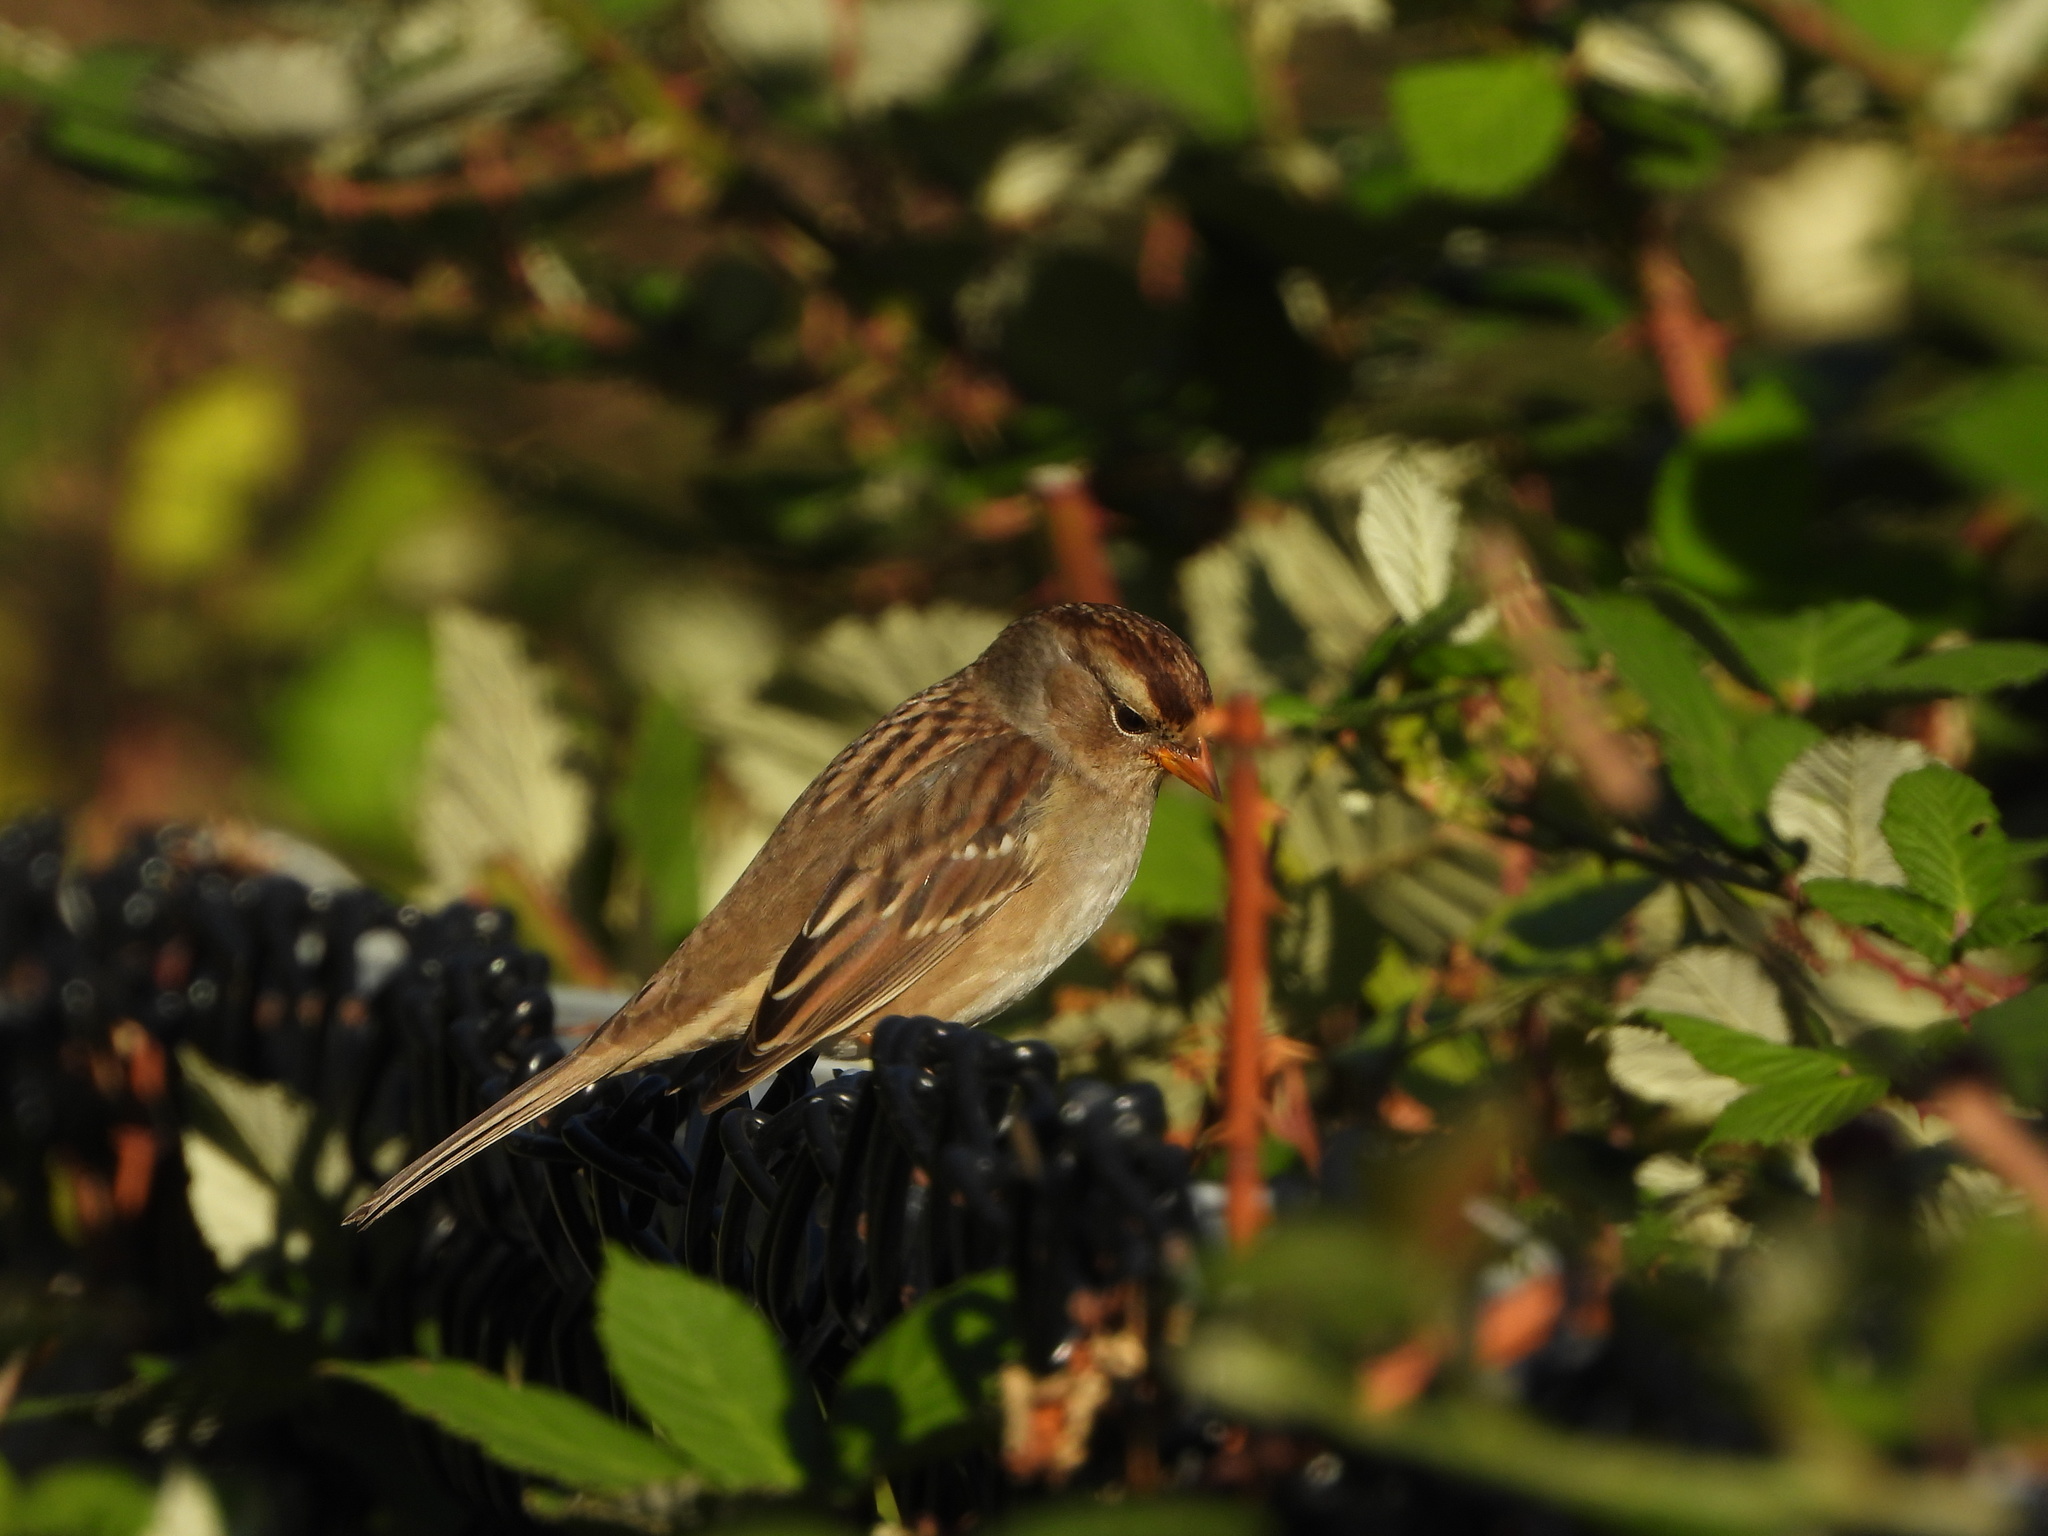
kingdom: Animalia
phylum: Chordata
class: Aves
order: Passeriformes
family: Passerellidae
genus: Zonotrichia
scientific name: Zonotrichia leucophrys
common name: White-crowned sparrow
